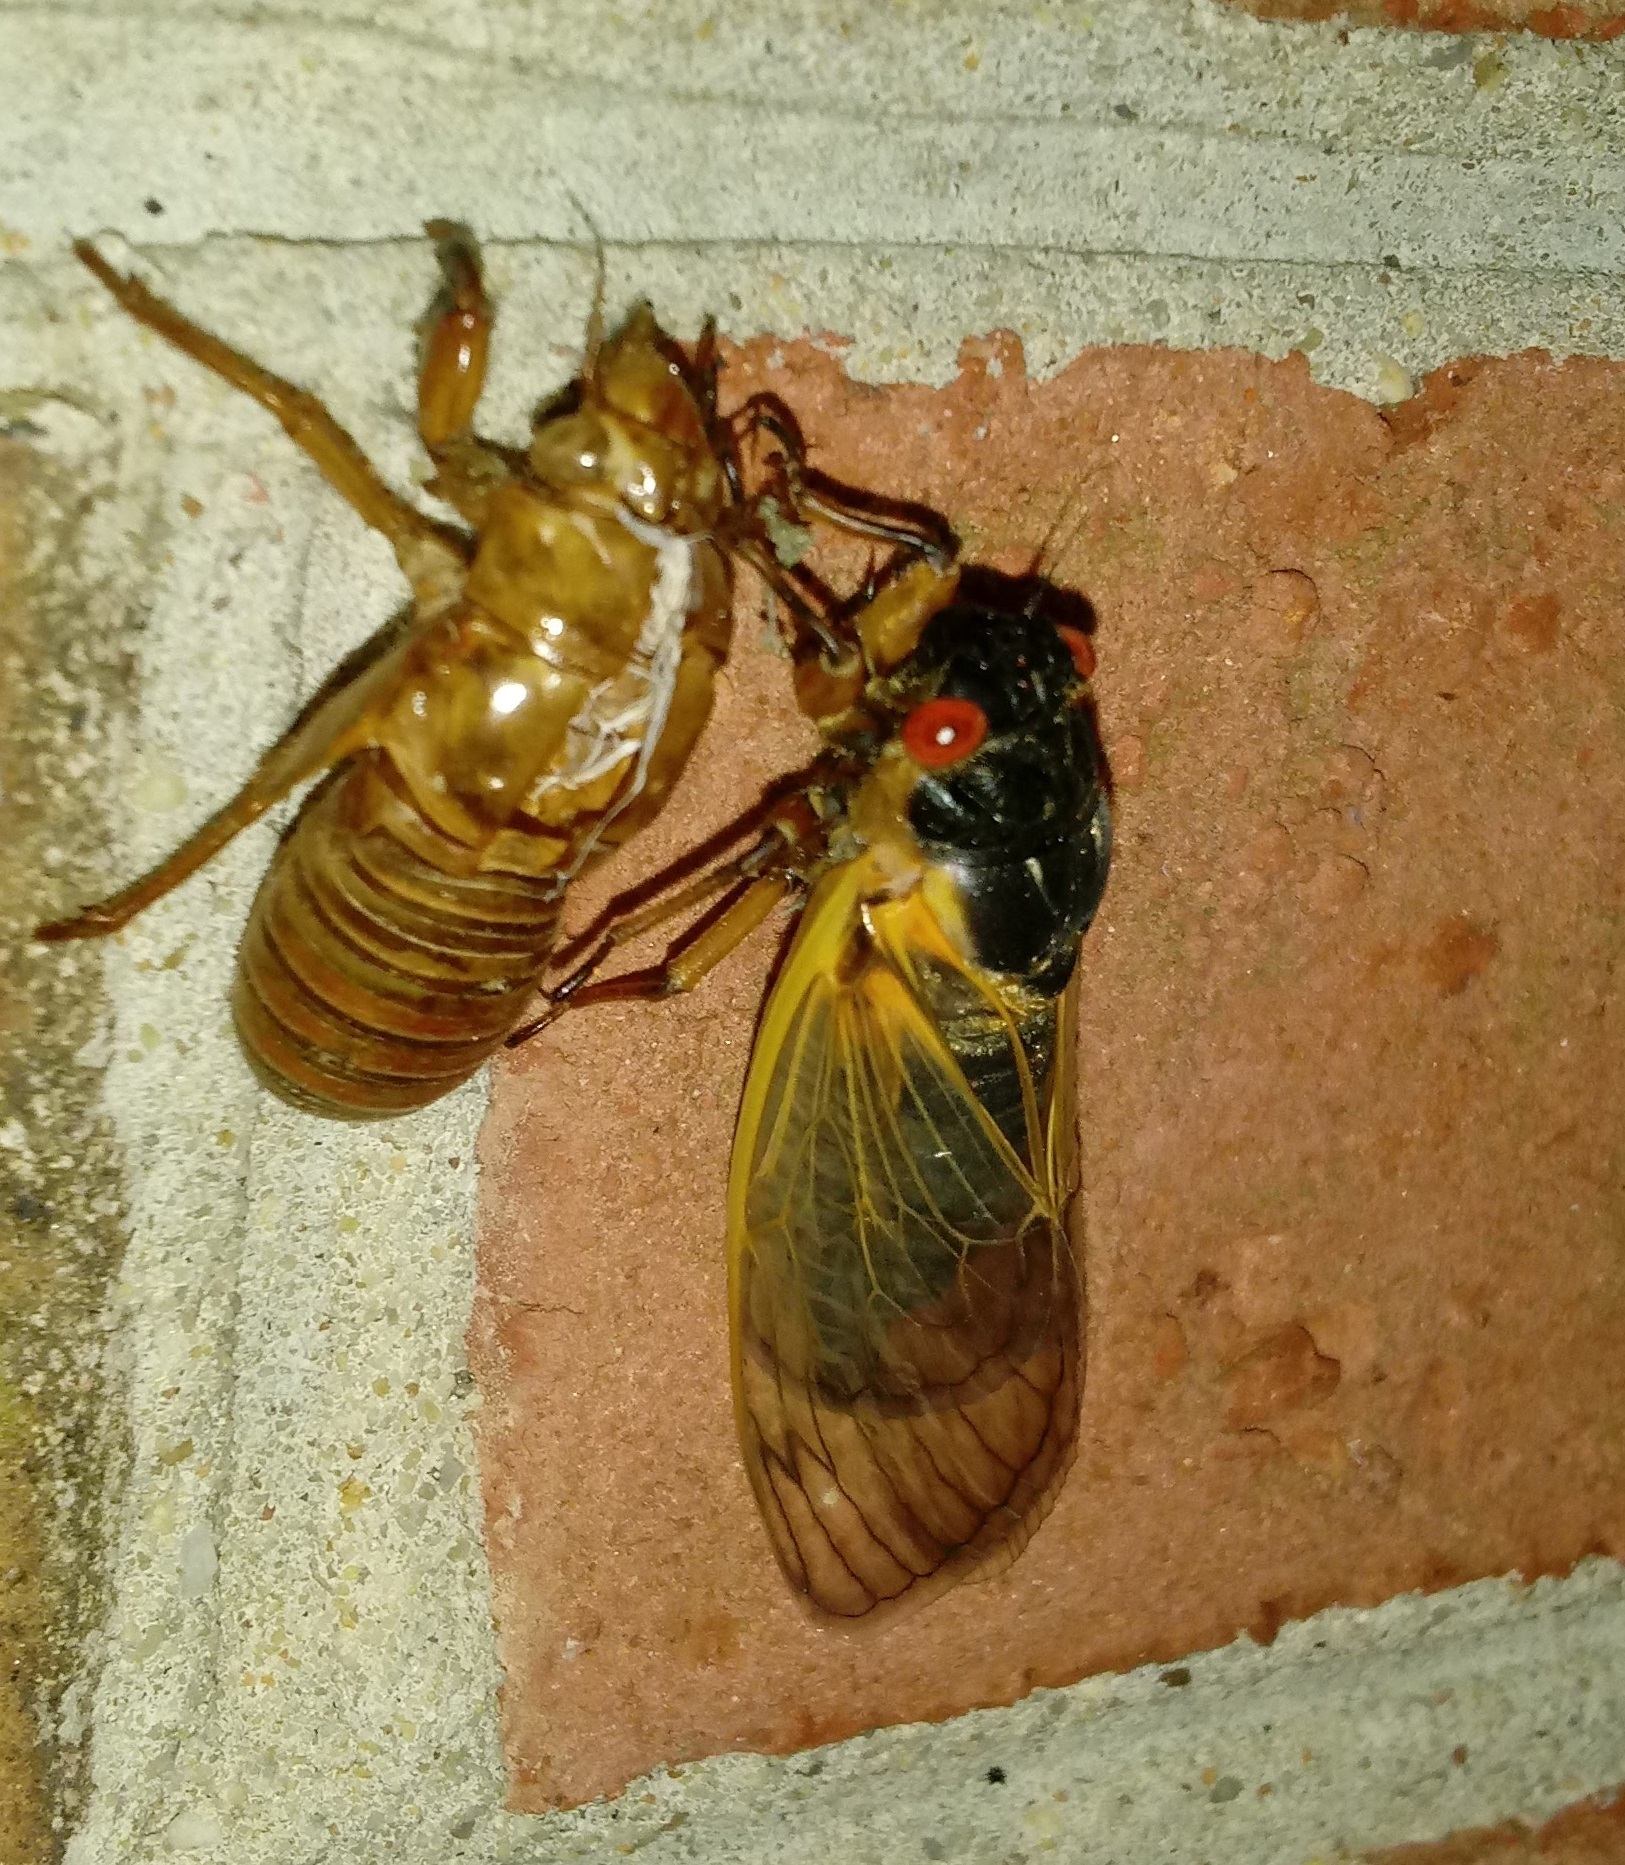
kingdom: Animalia
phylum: Arthropoda
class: Insecta
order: Hemiptera
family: Cicadidae
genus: Magicicada
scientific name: Magicicada septendecim
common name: Periodical cicada
